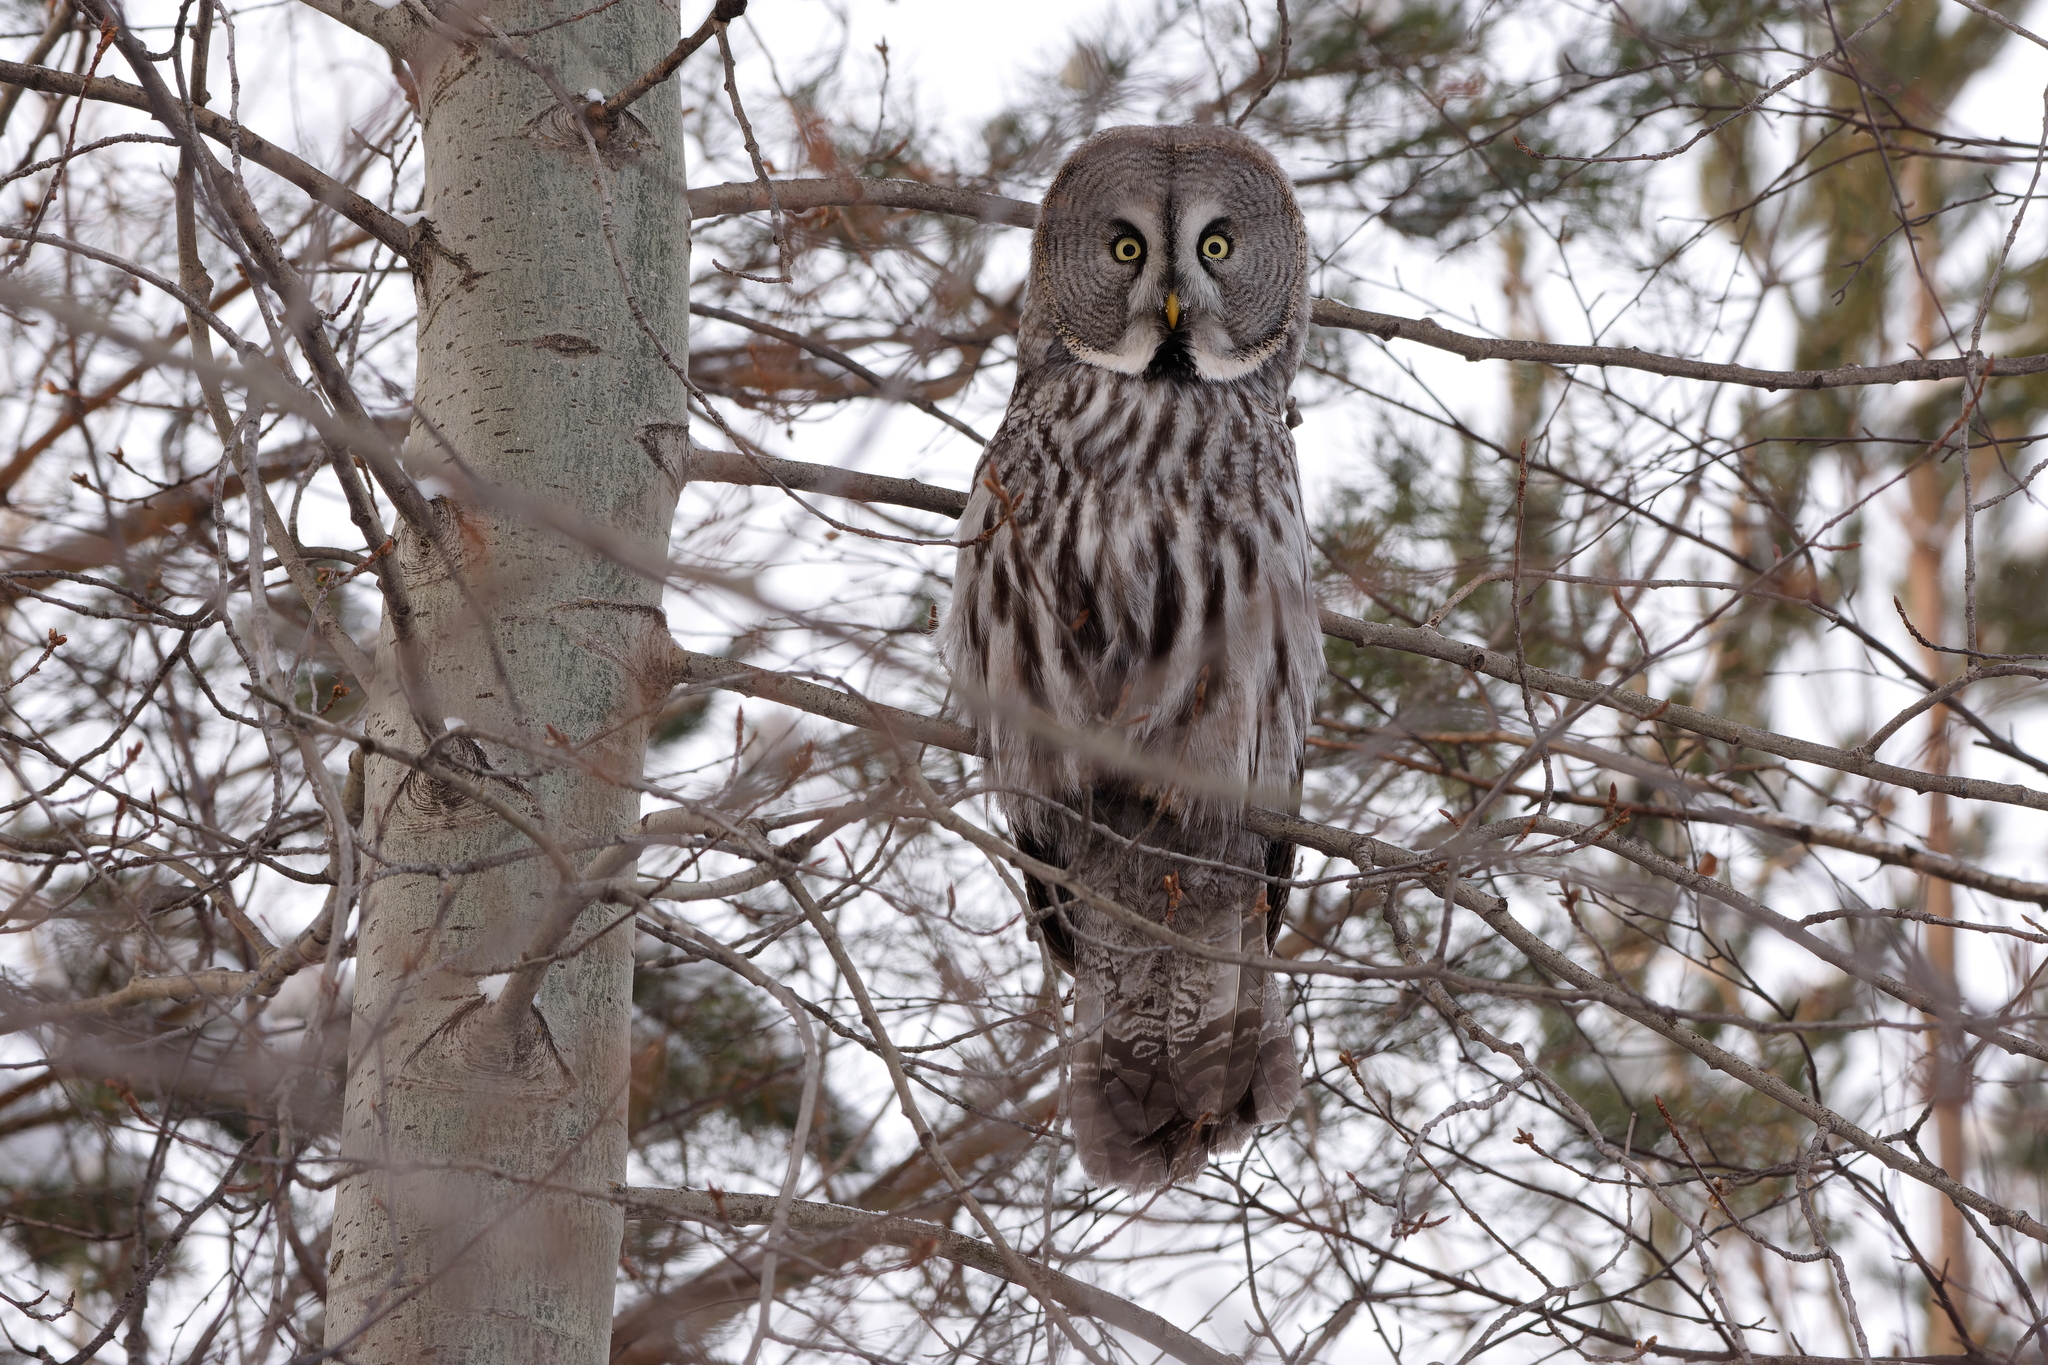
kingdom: Animalia
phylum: Chordata
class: Aves
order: Strigiformes
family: Strigidae
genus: Strix
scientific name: Strix nebulosa
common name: Great grey owl
